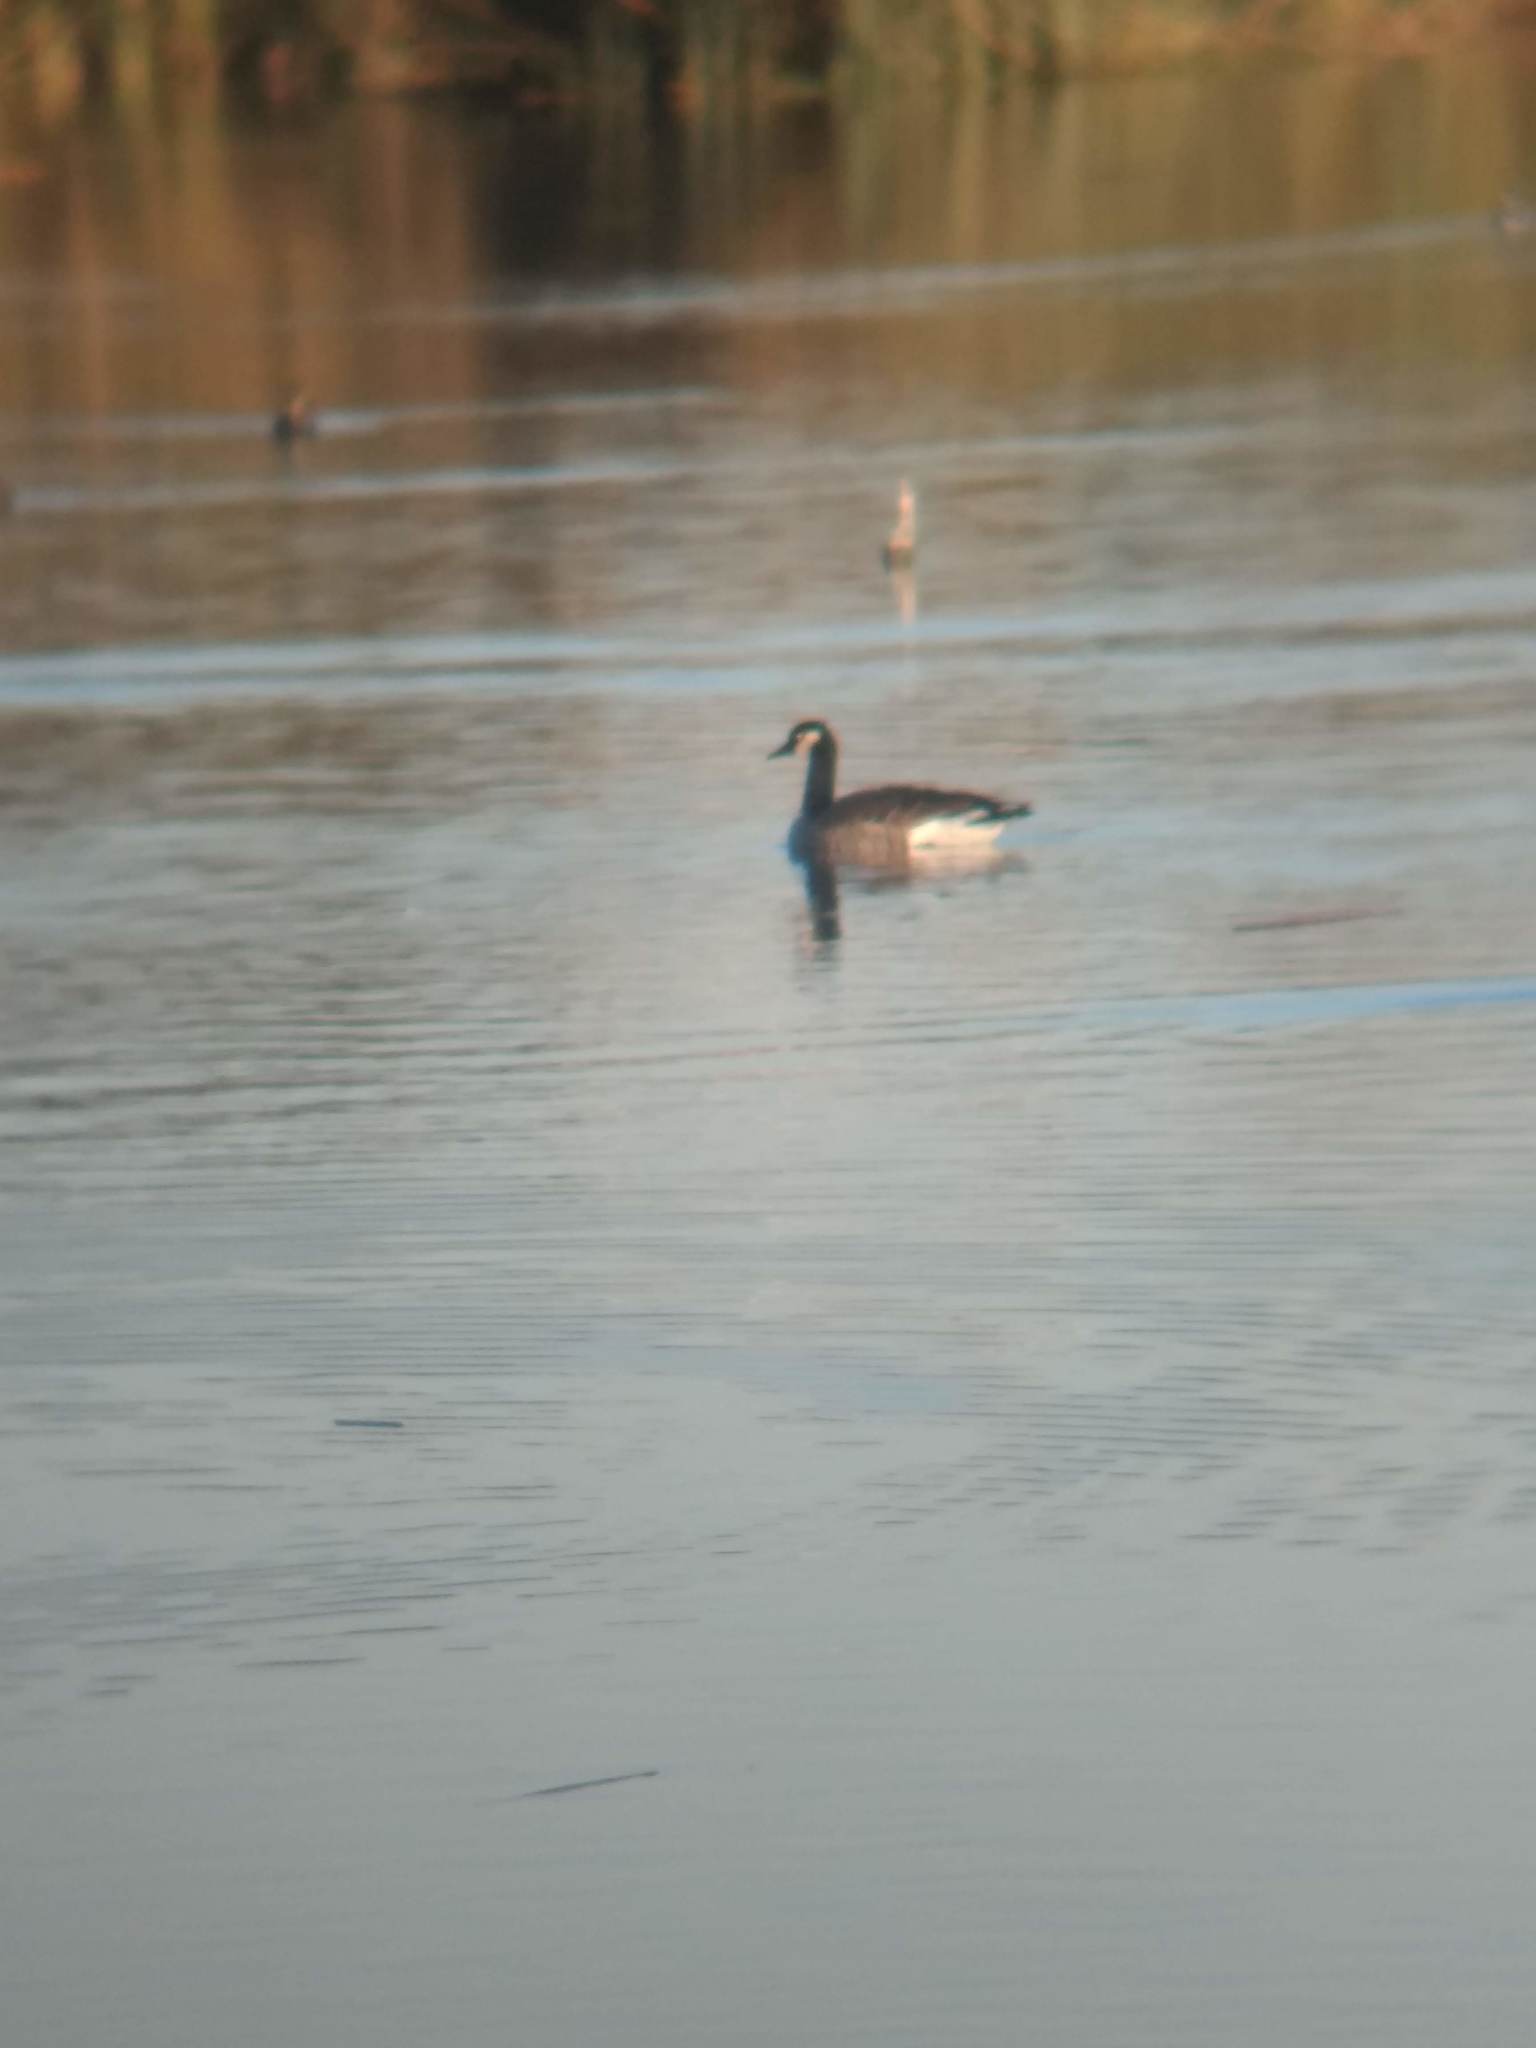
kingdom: Animalia
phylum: Chordata
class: Aves
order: Anseriformes
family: Anatidae
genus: Branta
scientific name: Branta canadensis
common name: Canada goose
